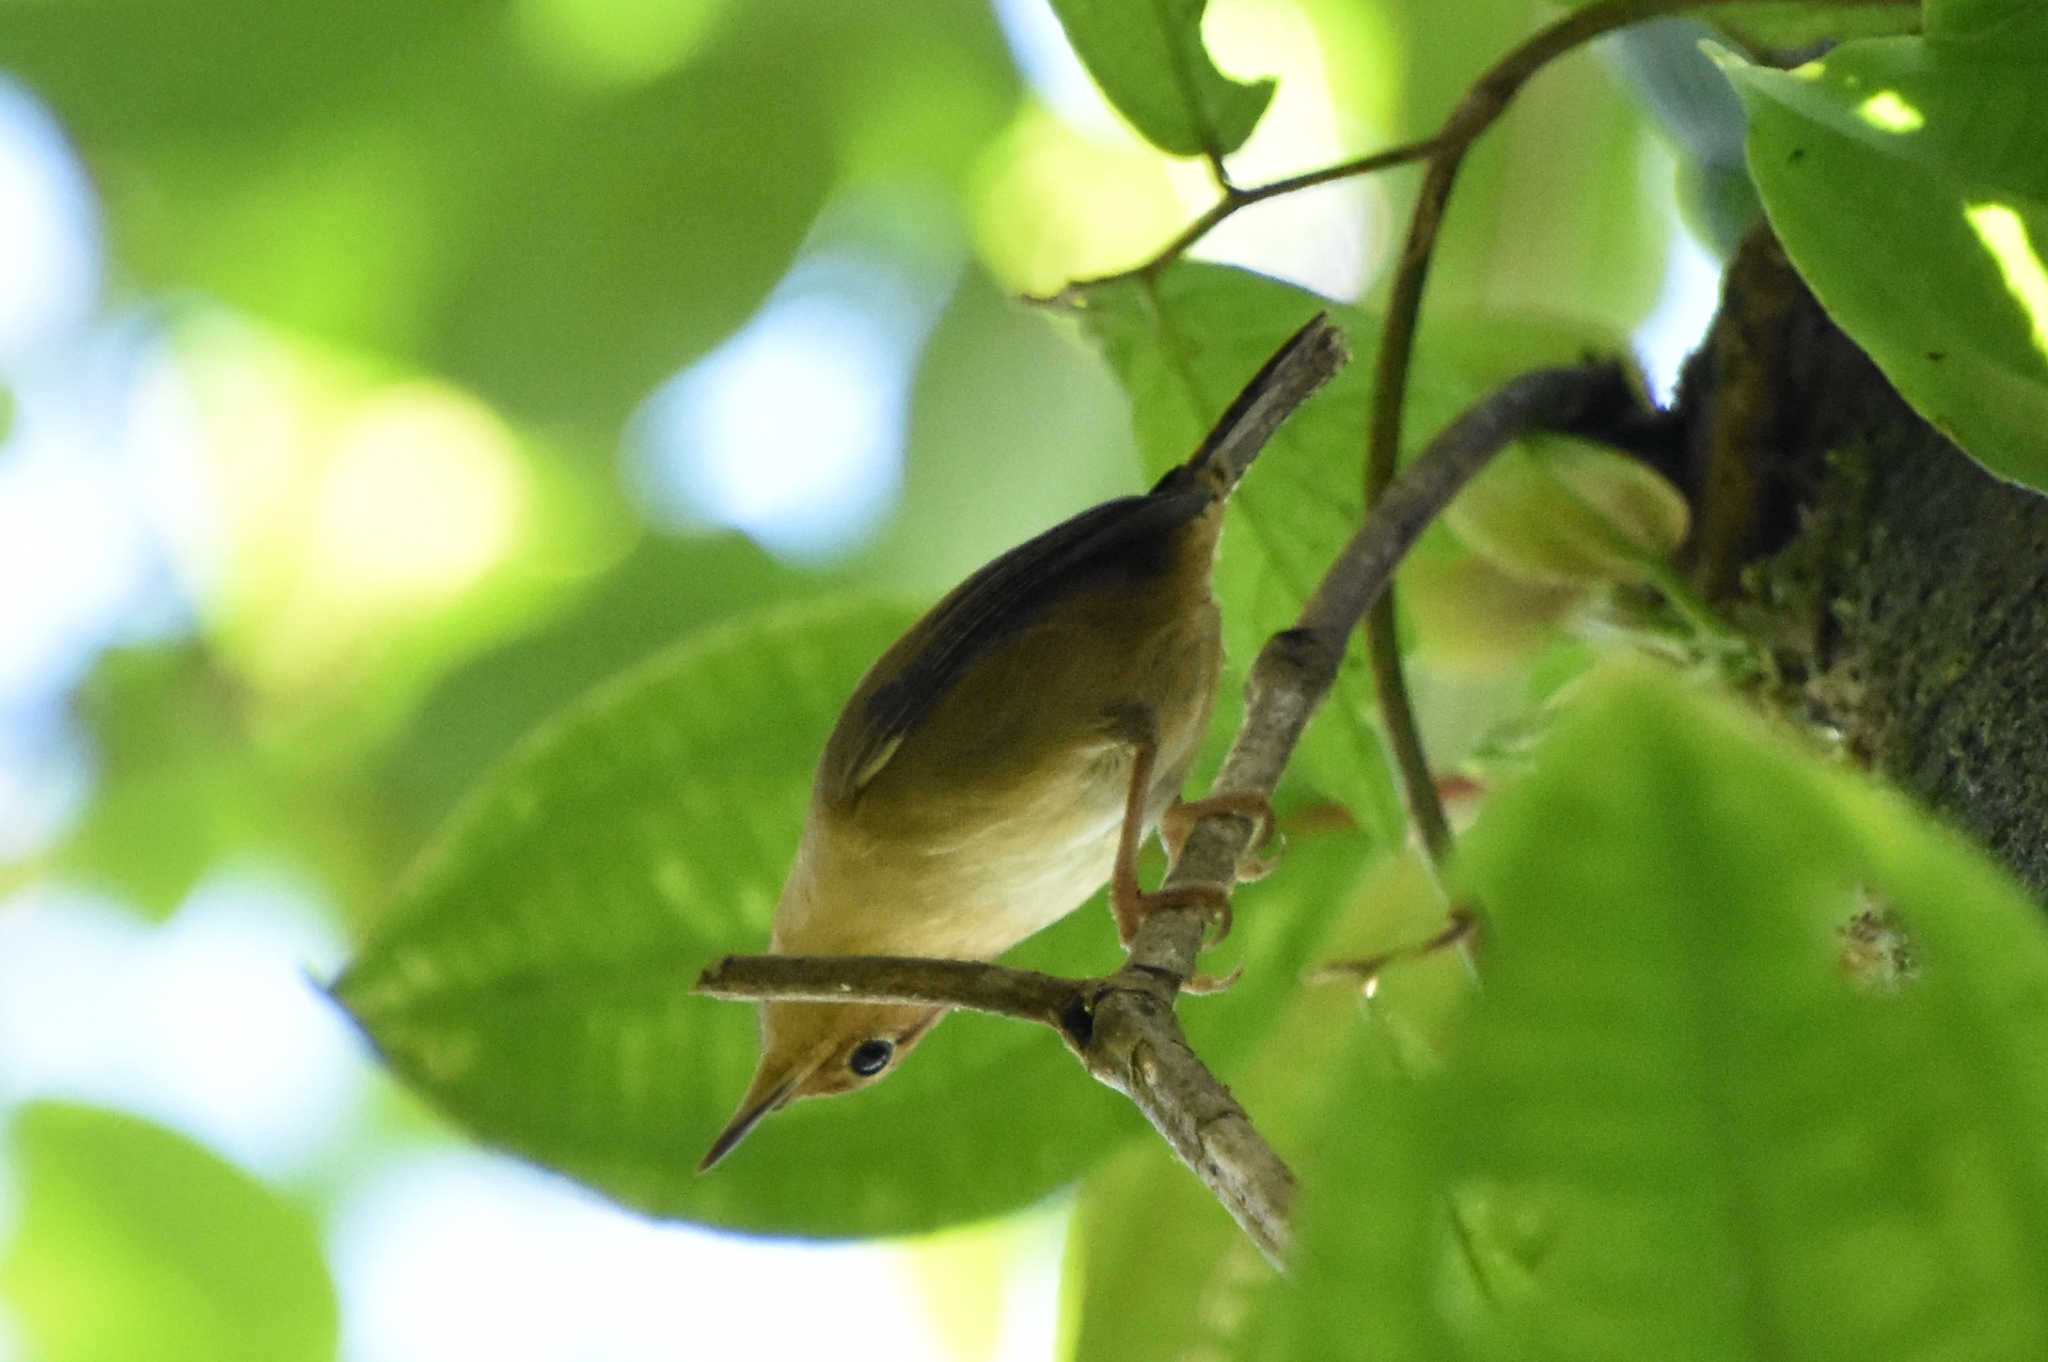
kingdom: Animalia
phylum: Chordata
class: Aves
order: Passeriformes
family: Troglodytidae
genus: Troglodytes
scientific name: Troglodytes ochraceus
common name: Ochraceous wren
